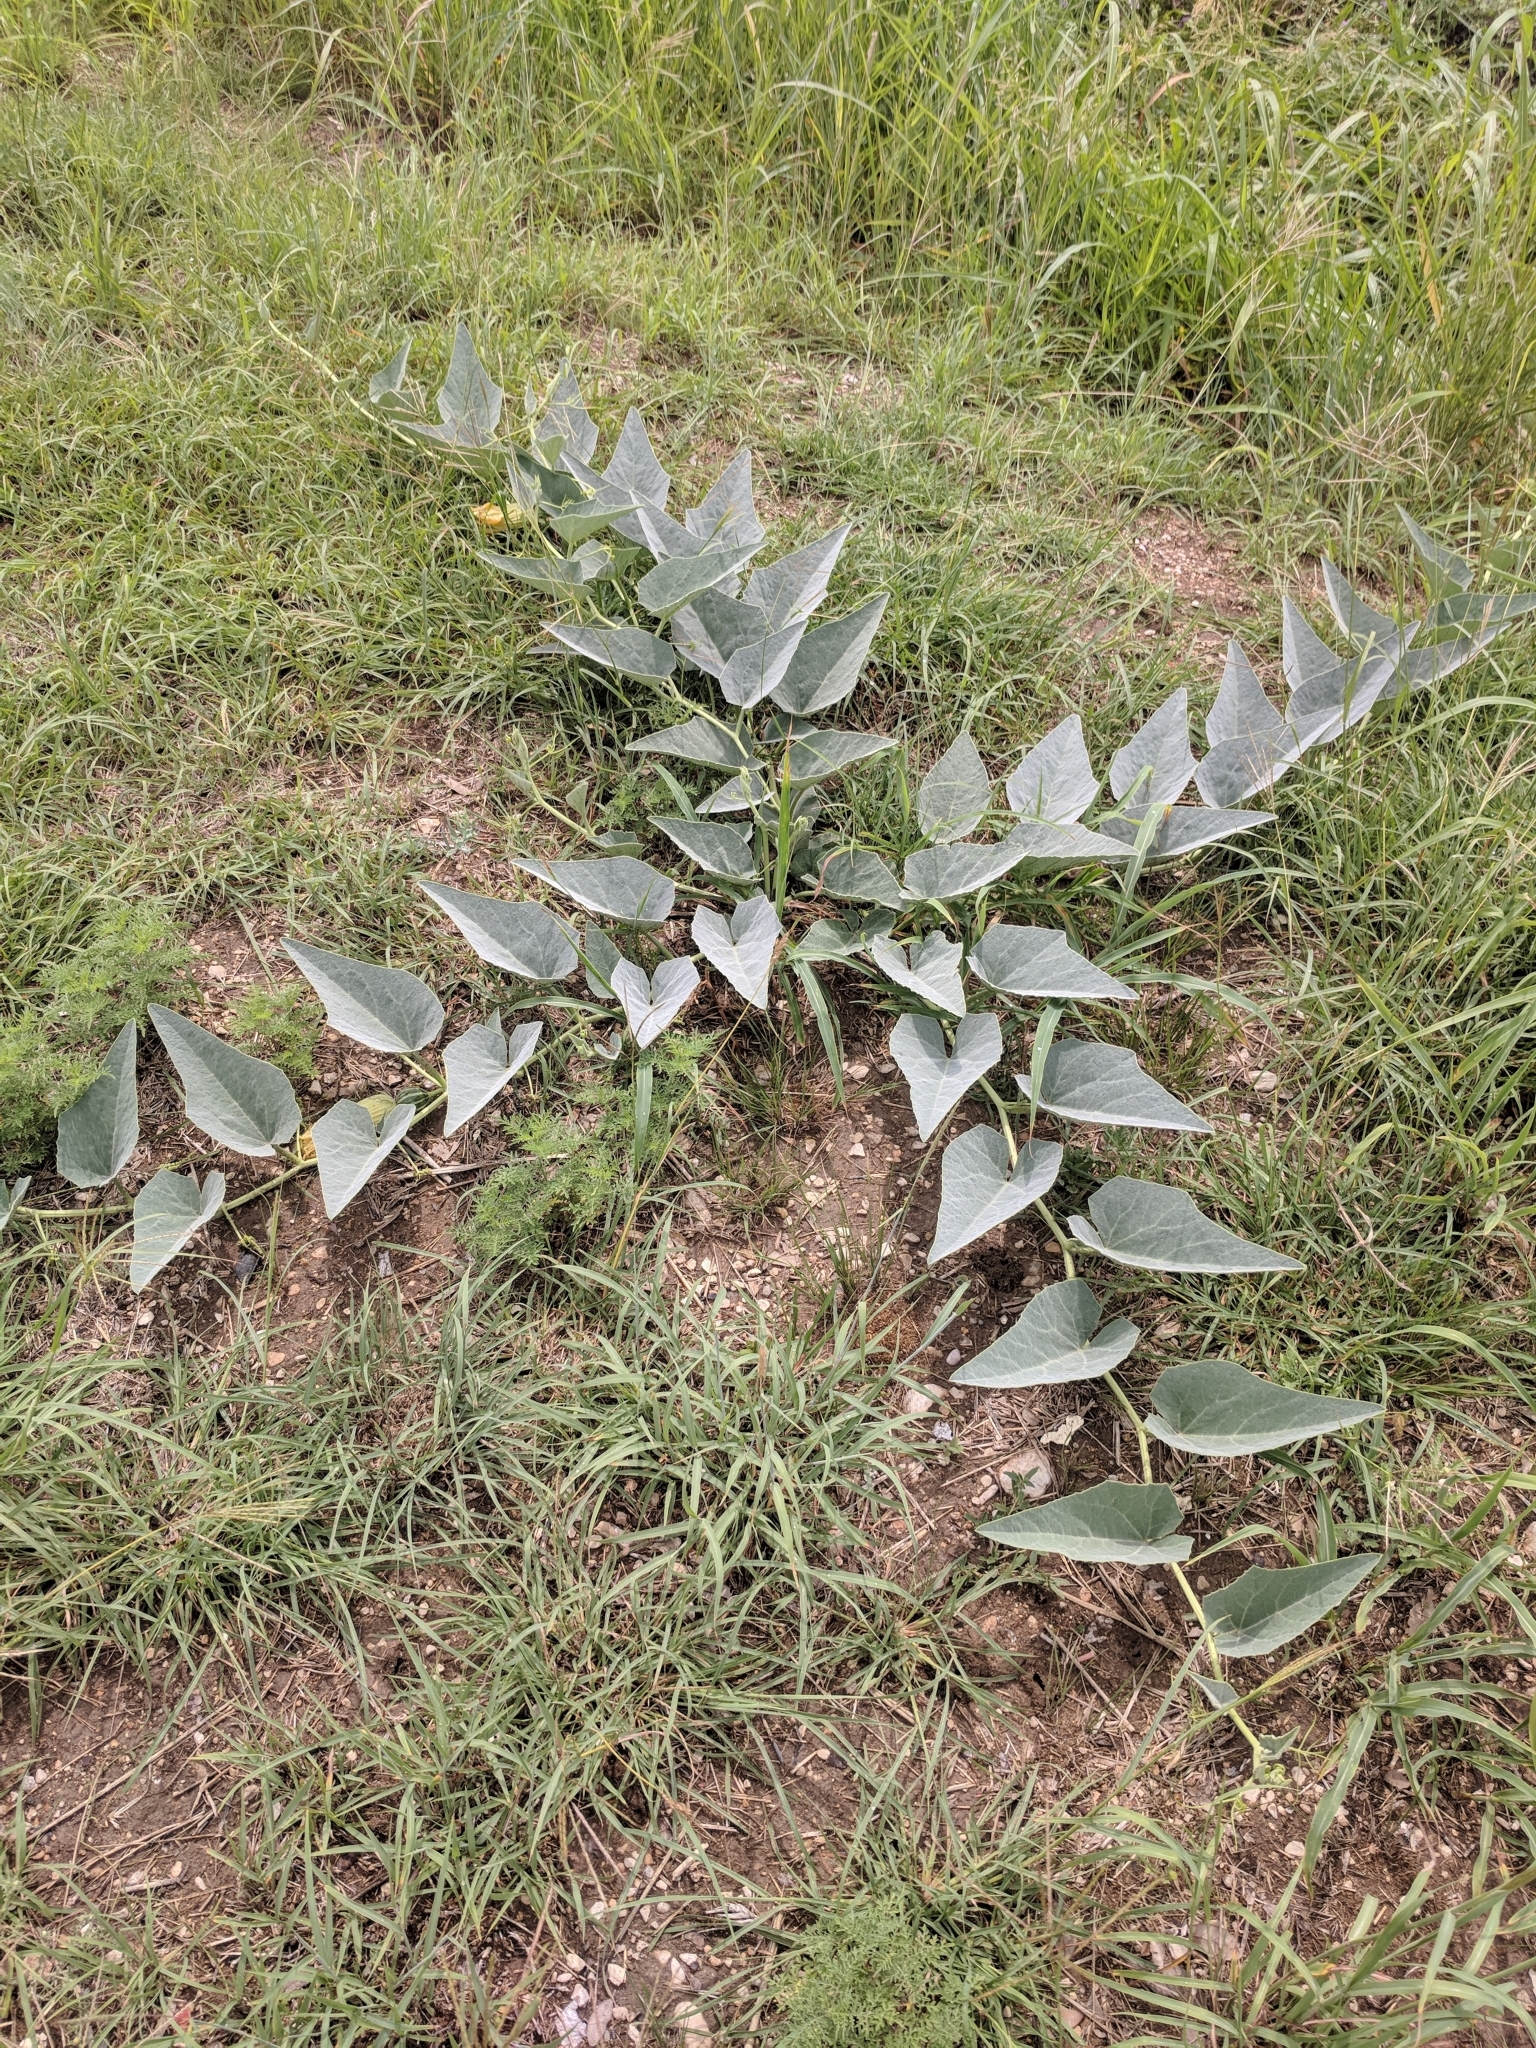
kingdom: Plantae
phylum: Tracheophyta
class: Magnoliopsida
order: Cucurbitales
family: Cucurbitaceae
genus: Cucurbita
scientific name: Cucurbita foetidissima
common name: Buffalo gourd
